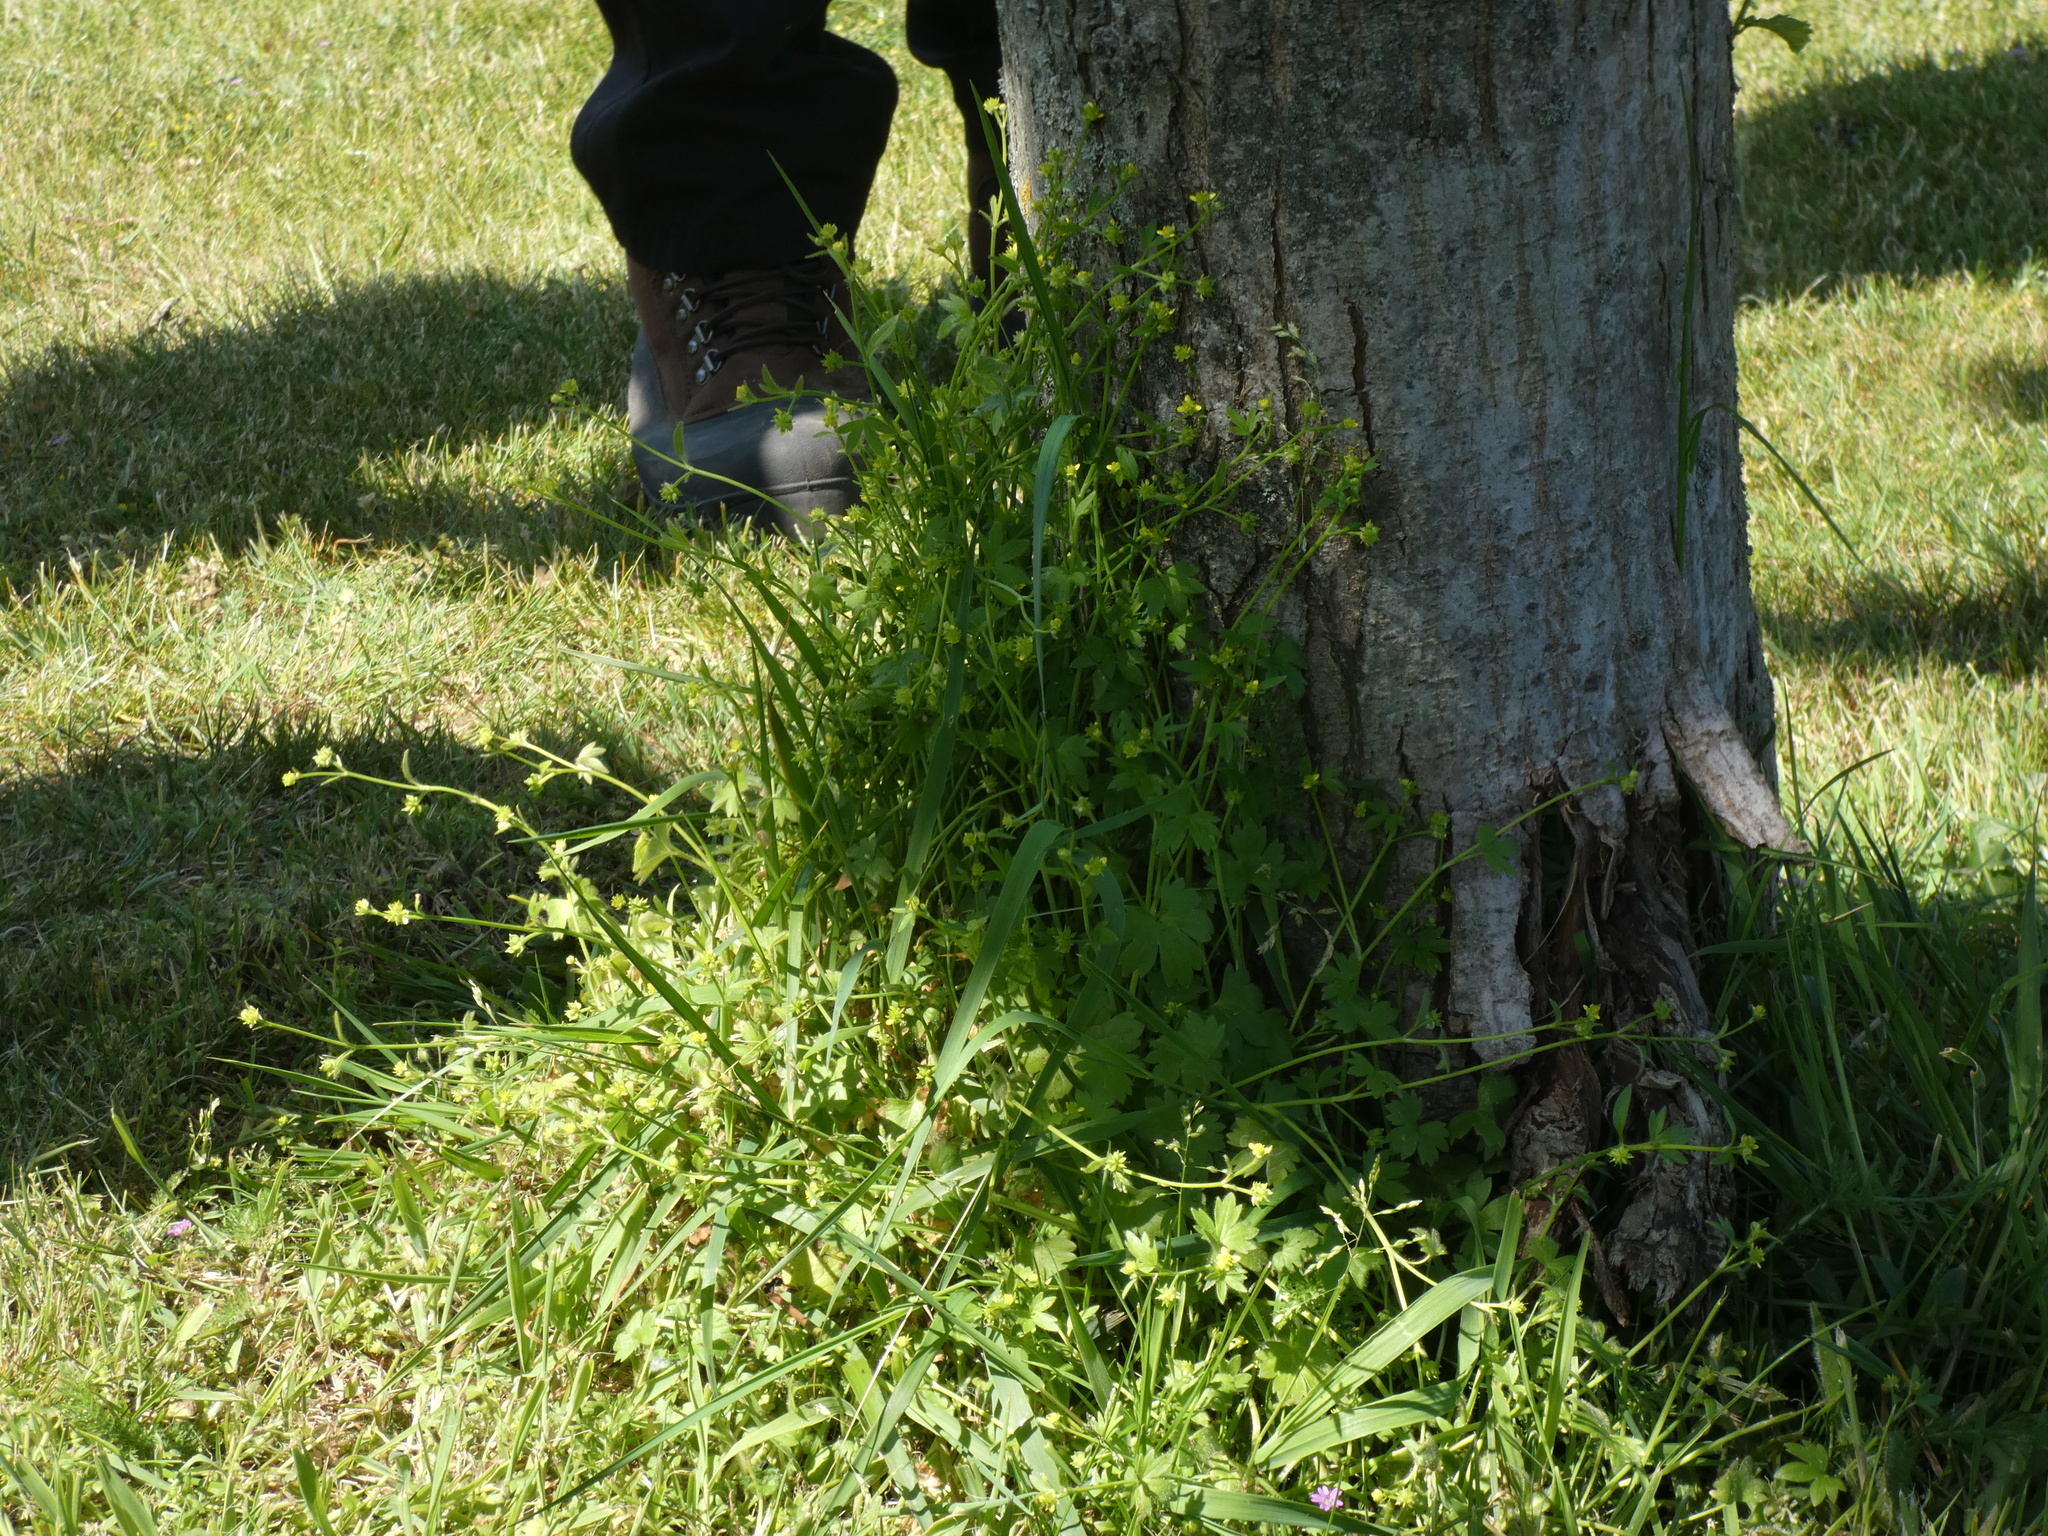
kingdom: Plantae
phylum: Tracheophyta
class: Magnoliopsida
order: Ranunculales
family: Ranunculaceae
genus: Ranunculus
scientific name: Ranunculus parviflorus
